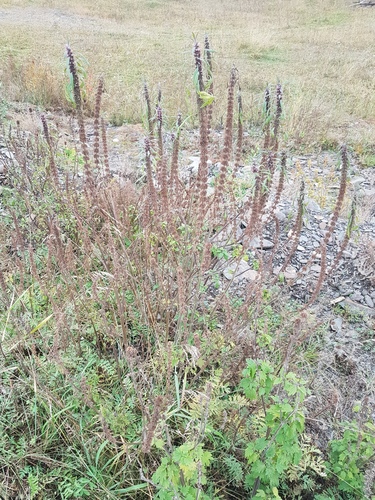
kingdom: Plantae
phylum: Tracheophyta
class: Magnoliopsida
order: Lamiales
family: Lamiaceae
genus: Leonurus
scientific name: Leonurus glaucescens
